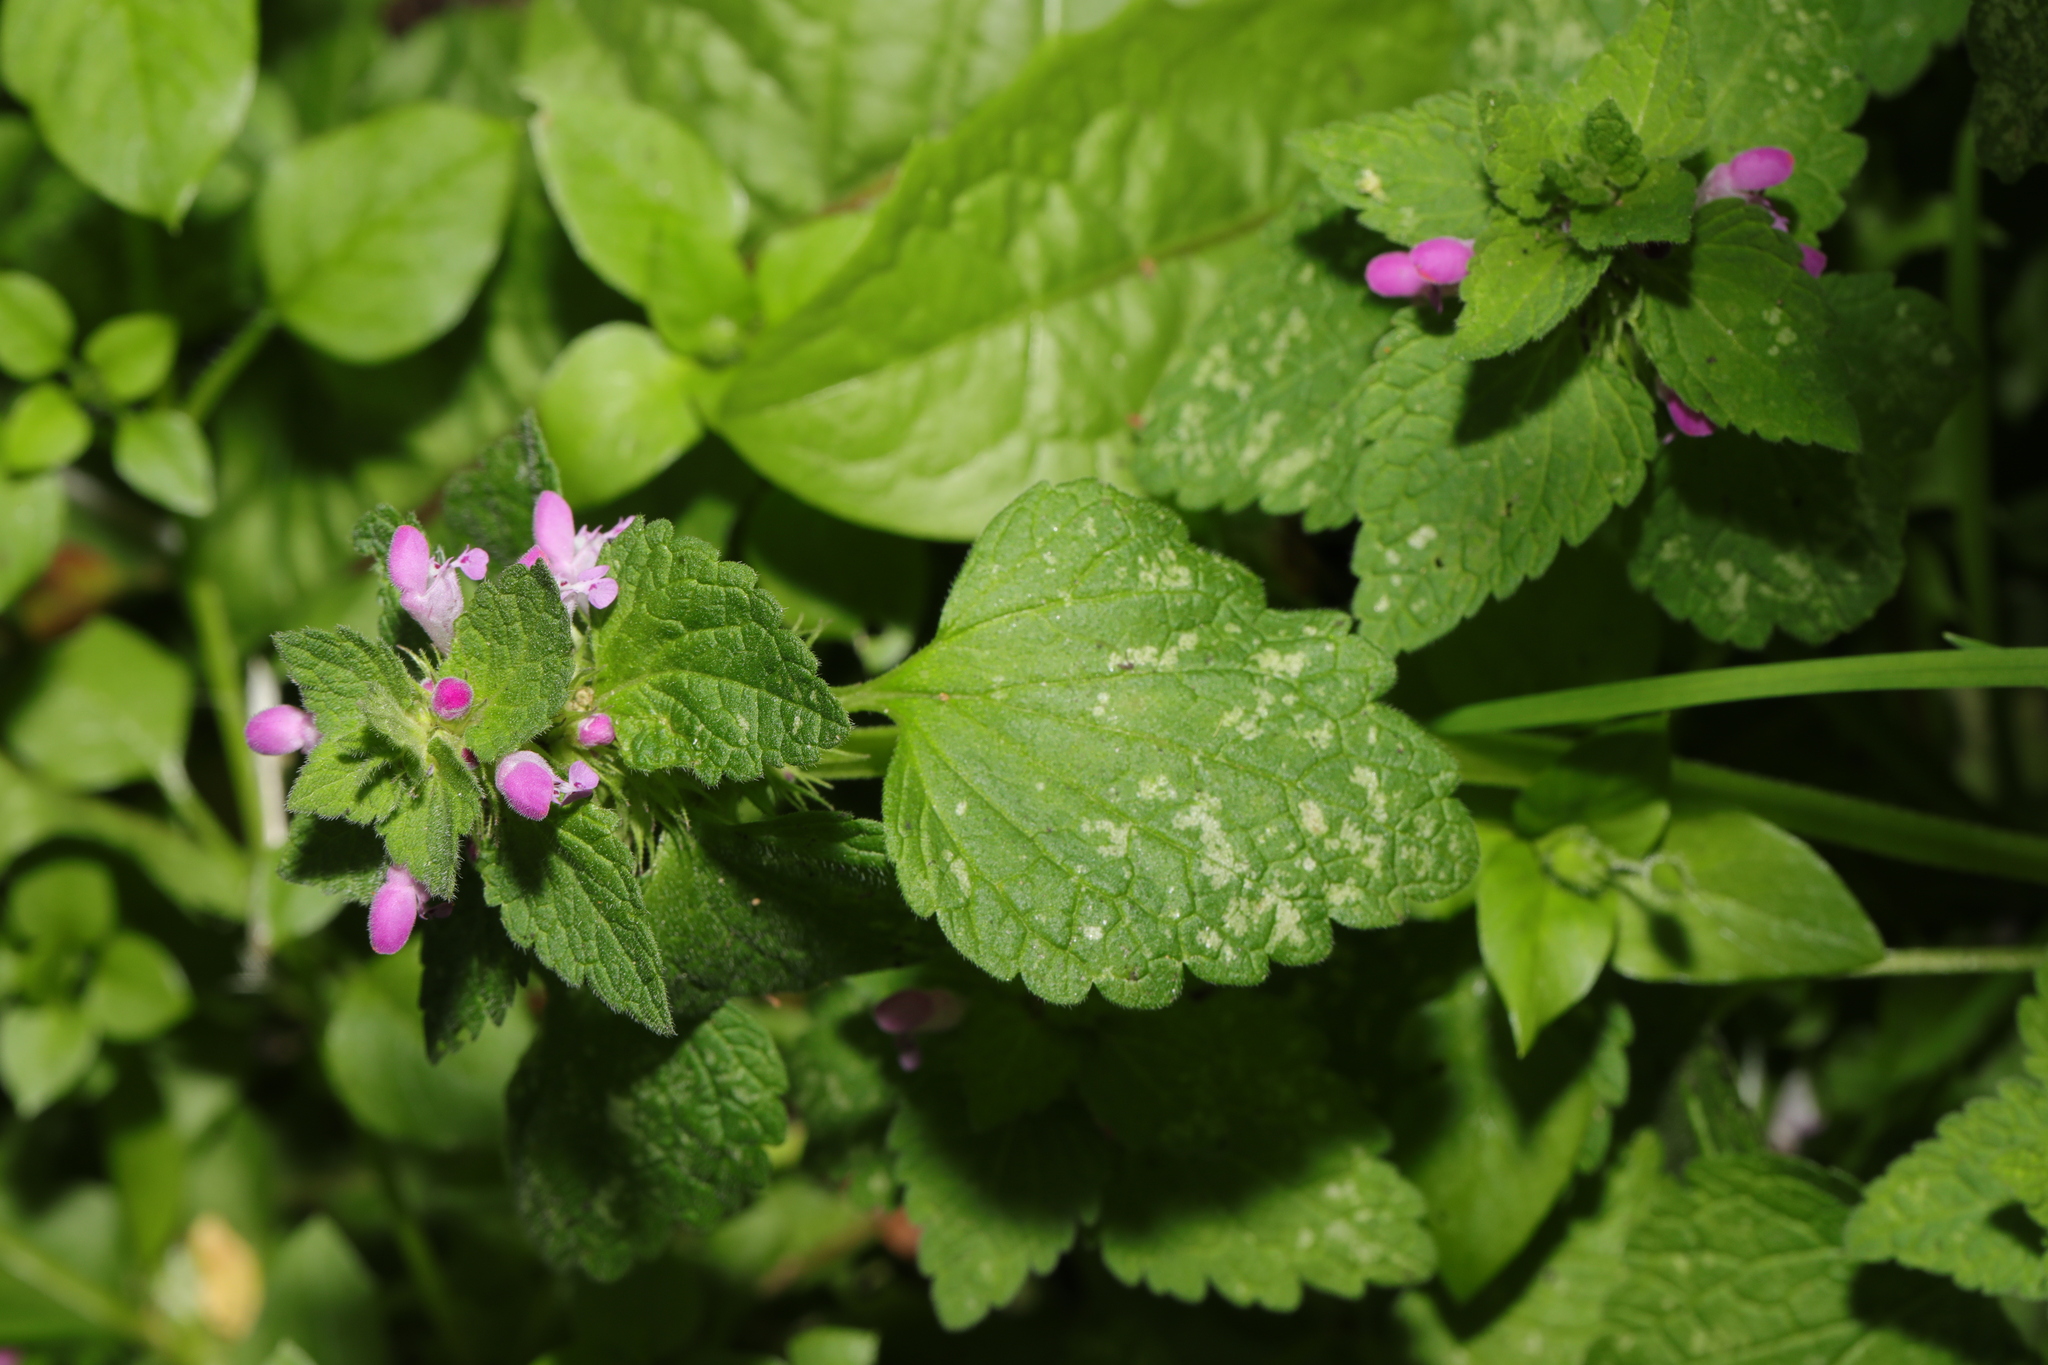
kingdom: Plantae
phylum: Tracheophyta
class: Magnoliopsida
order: Lamiales
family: Lamiaceae
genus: Lamium
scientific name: Lamium purpureum
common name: Red dead-nettle
